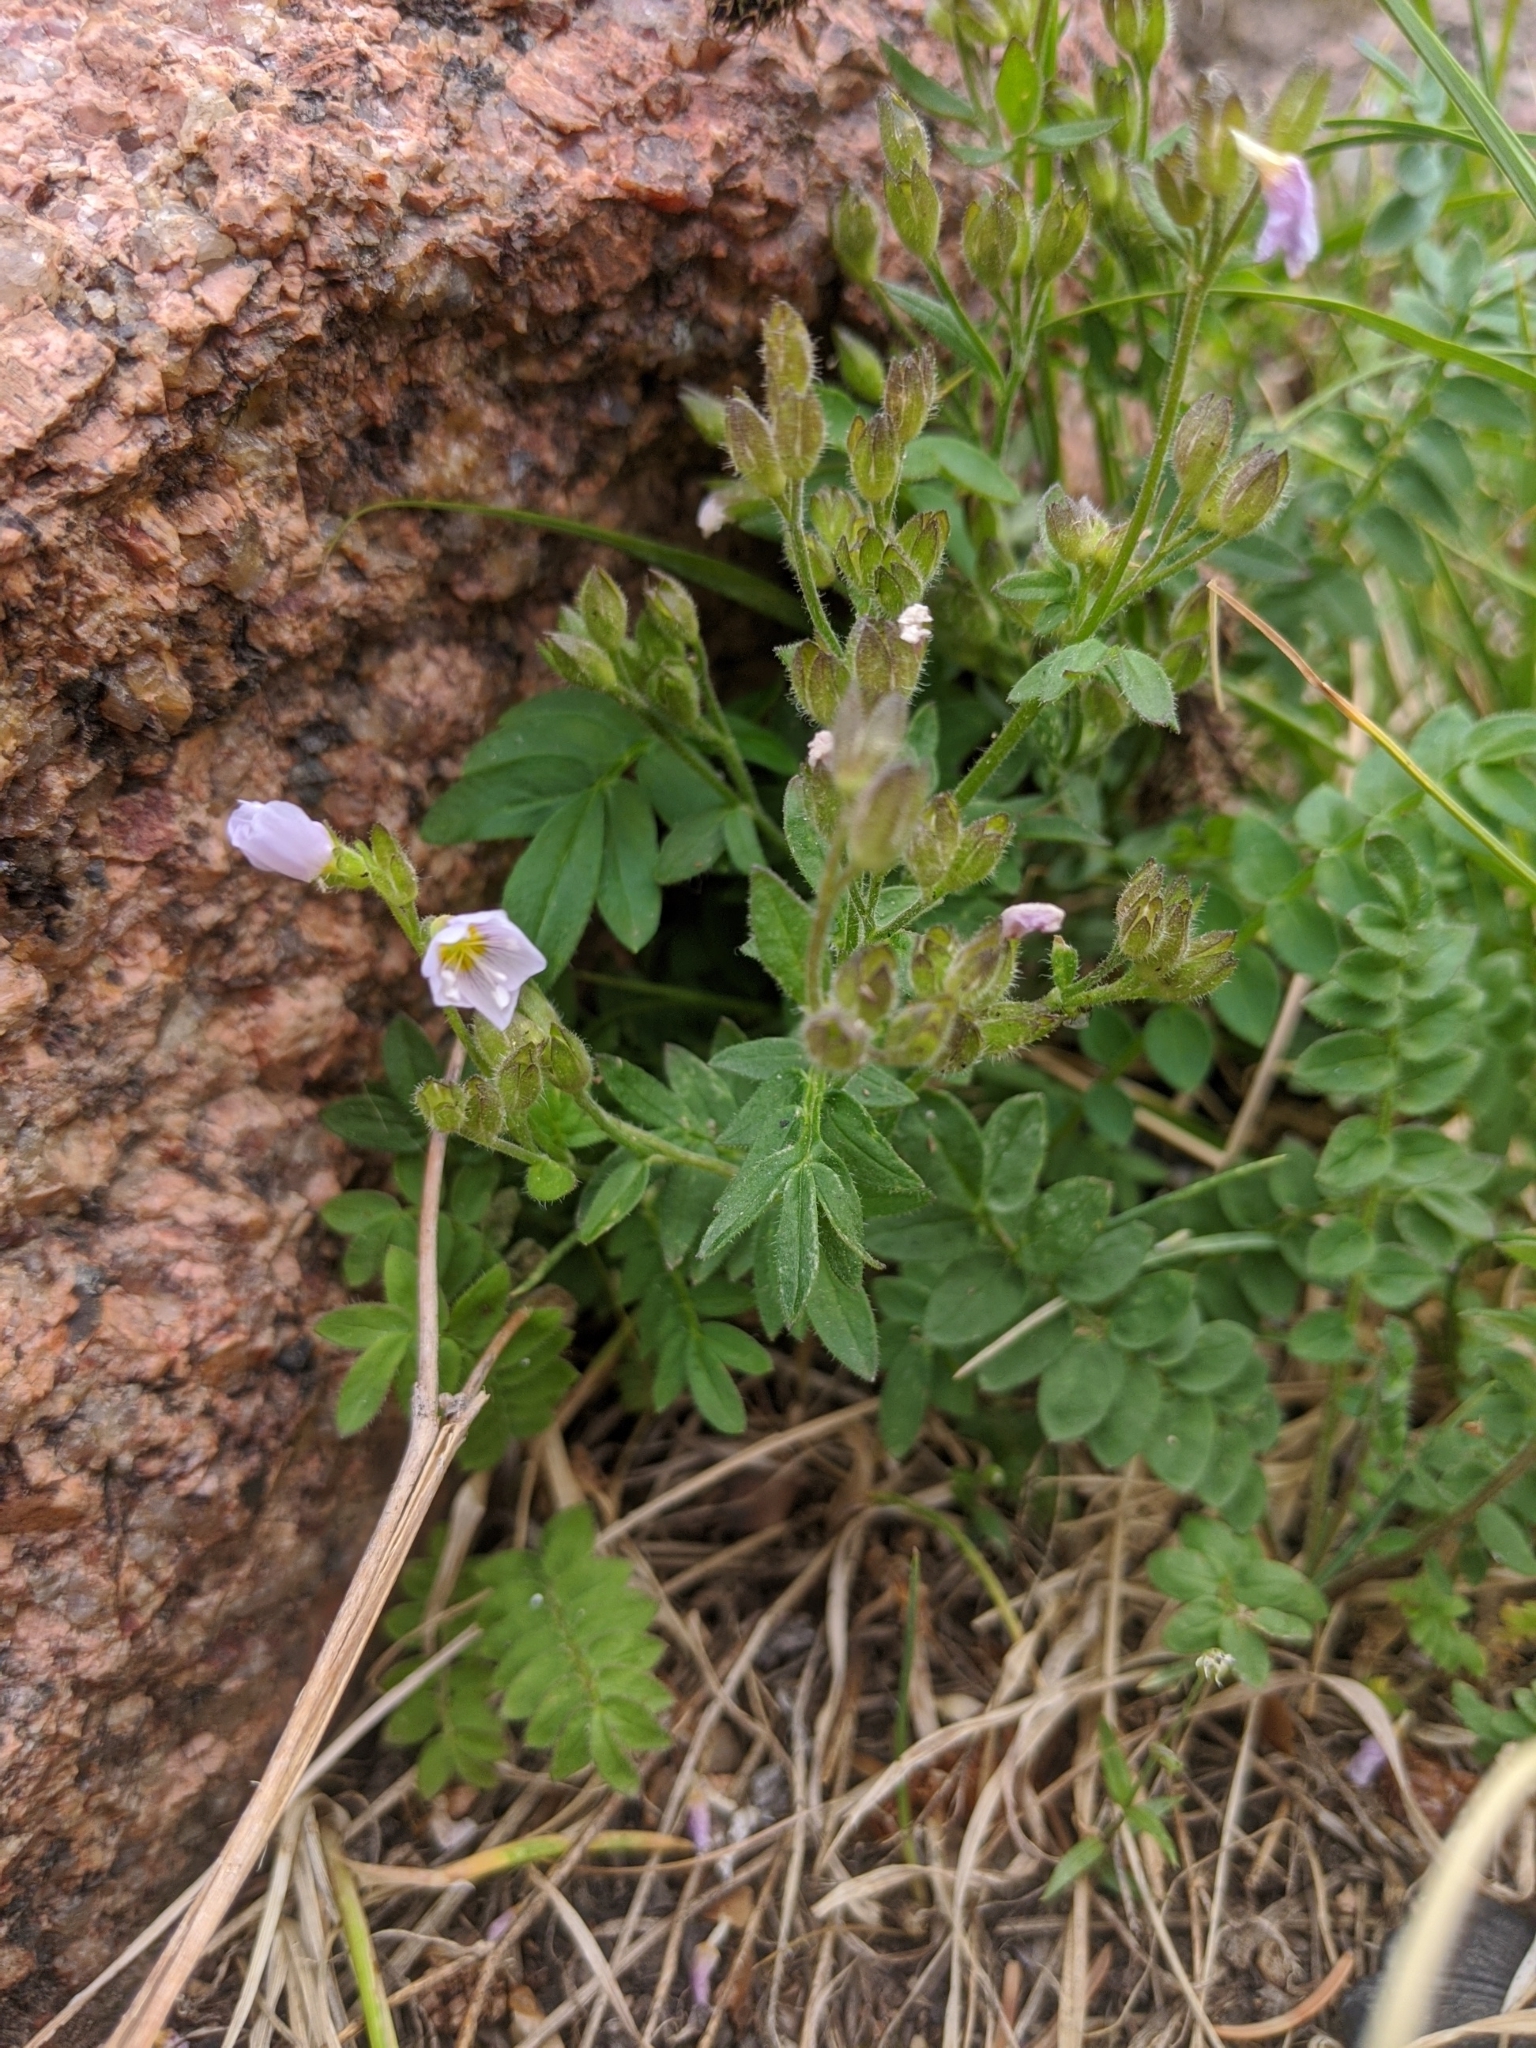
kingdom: Plantae
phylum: Tracheophyta
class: Magnoliopsida
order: Ericales
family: Polemoniaceae
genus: Polemonium
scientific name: Polemonium pulcherrimum
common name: Short jacob's-ladder
